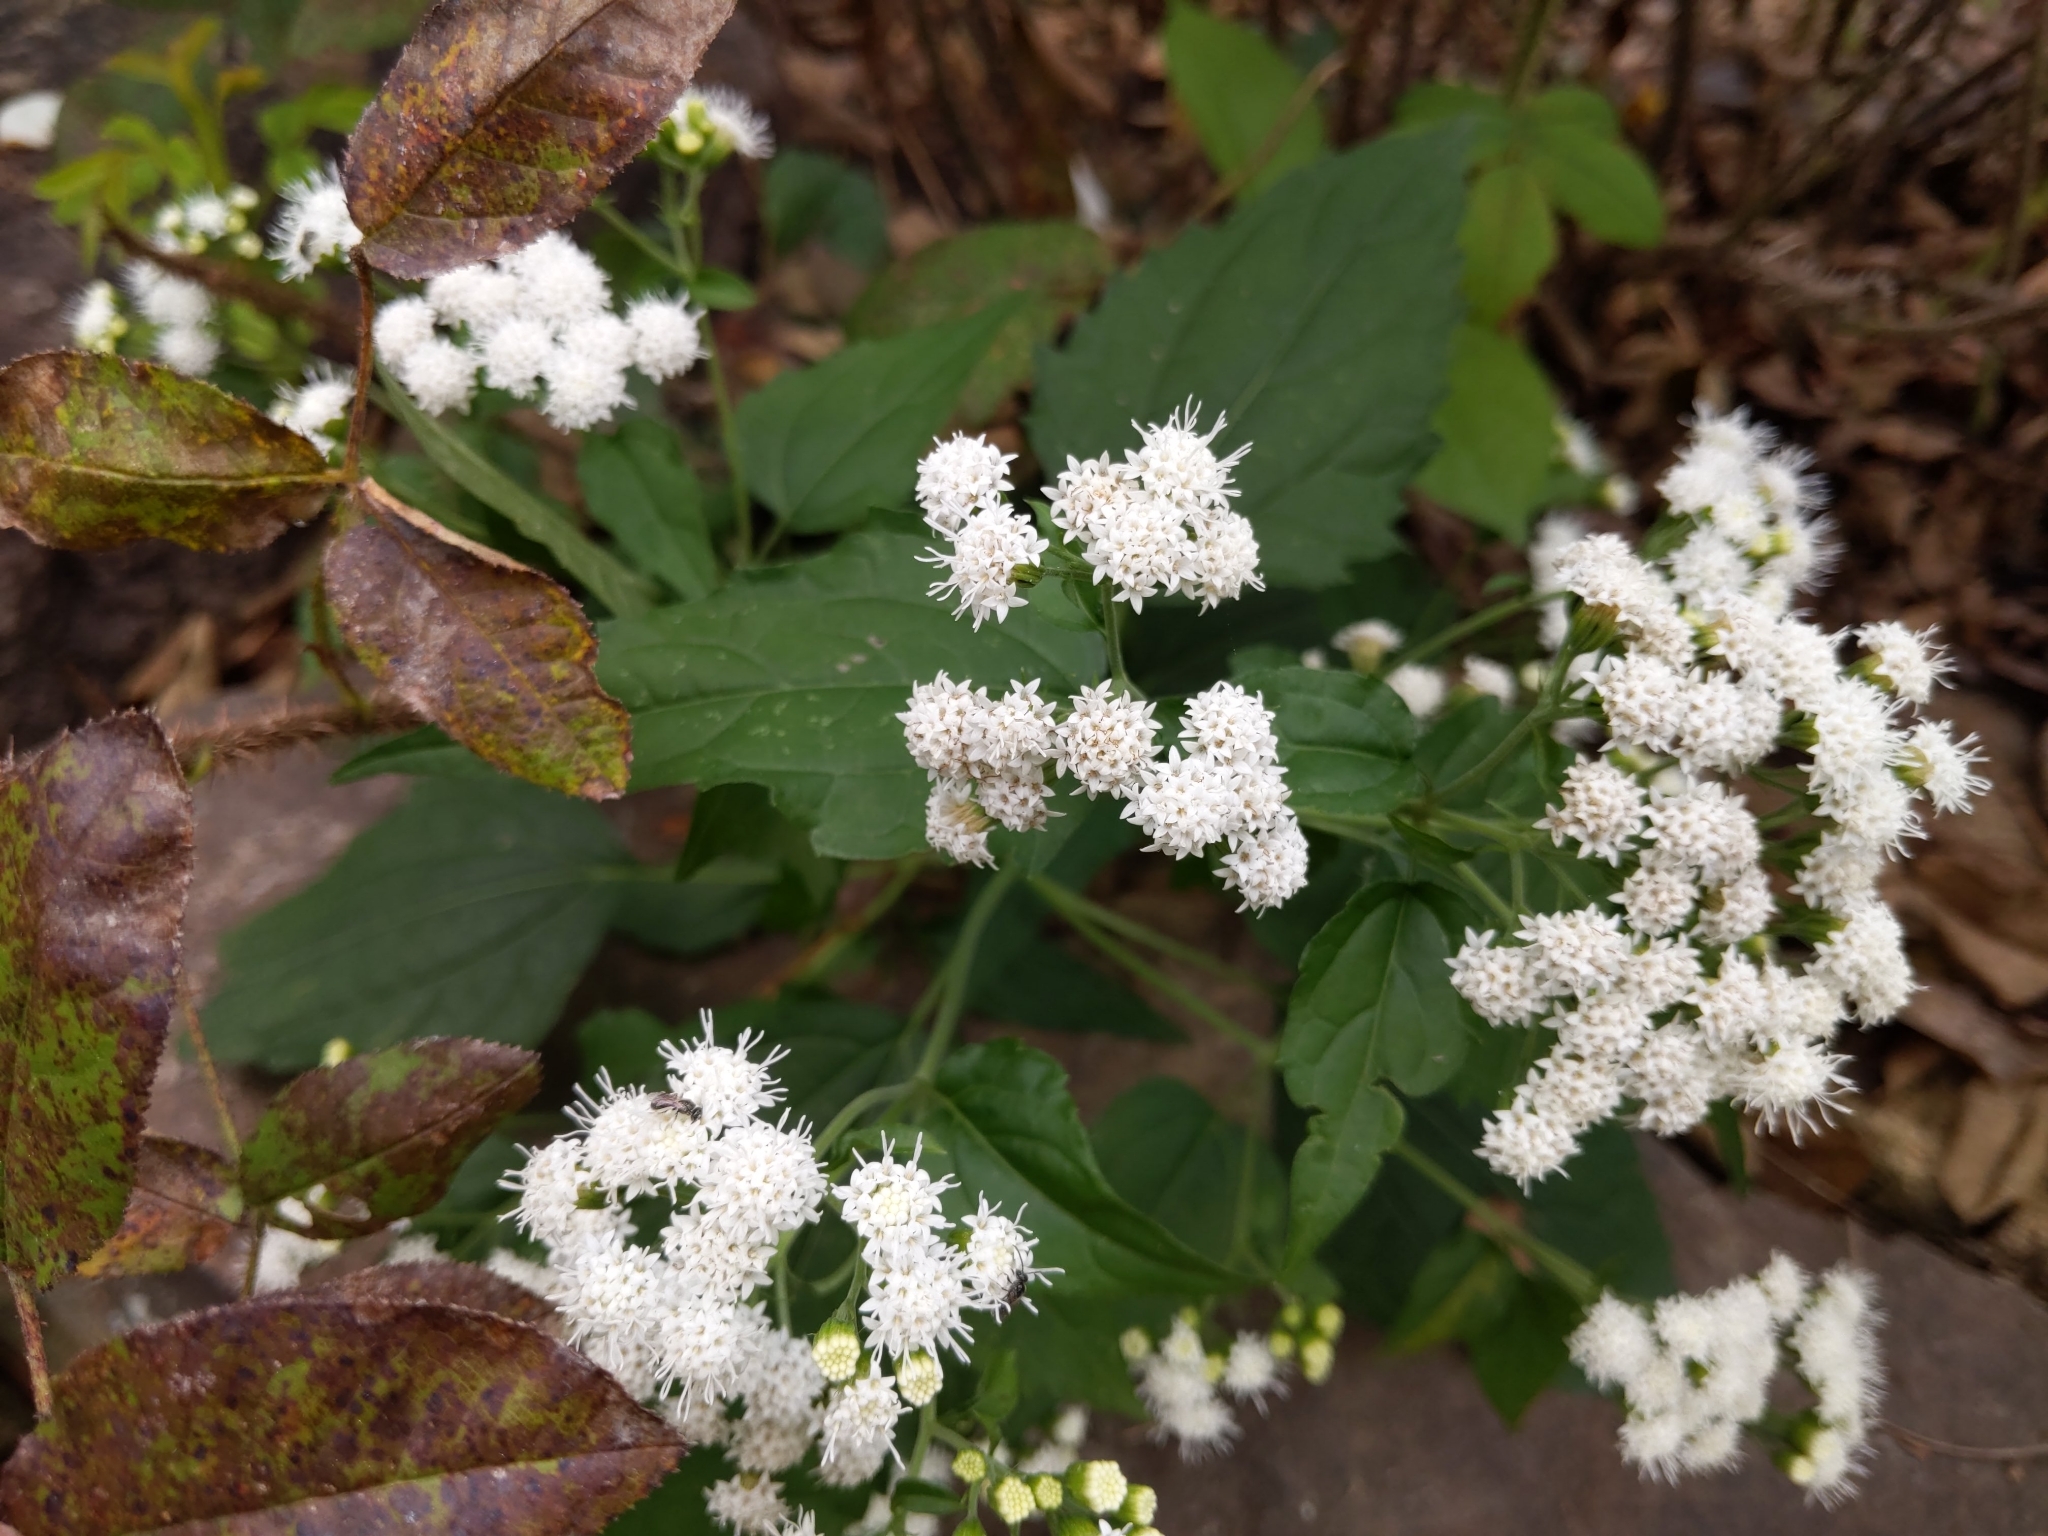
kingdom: Plantae
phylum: Tracheophyta
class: Magnoliopsida
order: Asterales
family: Asteraceae
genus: Ageratina
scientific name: Ageratina altissima
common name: White snakeroot
